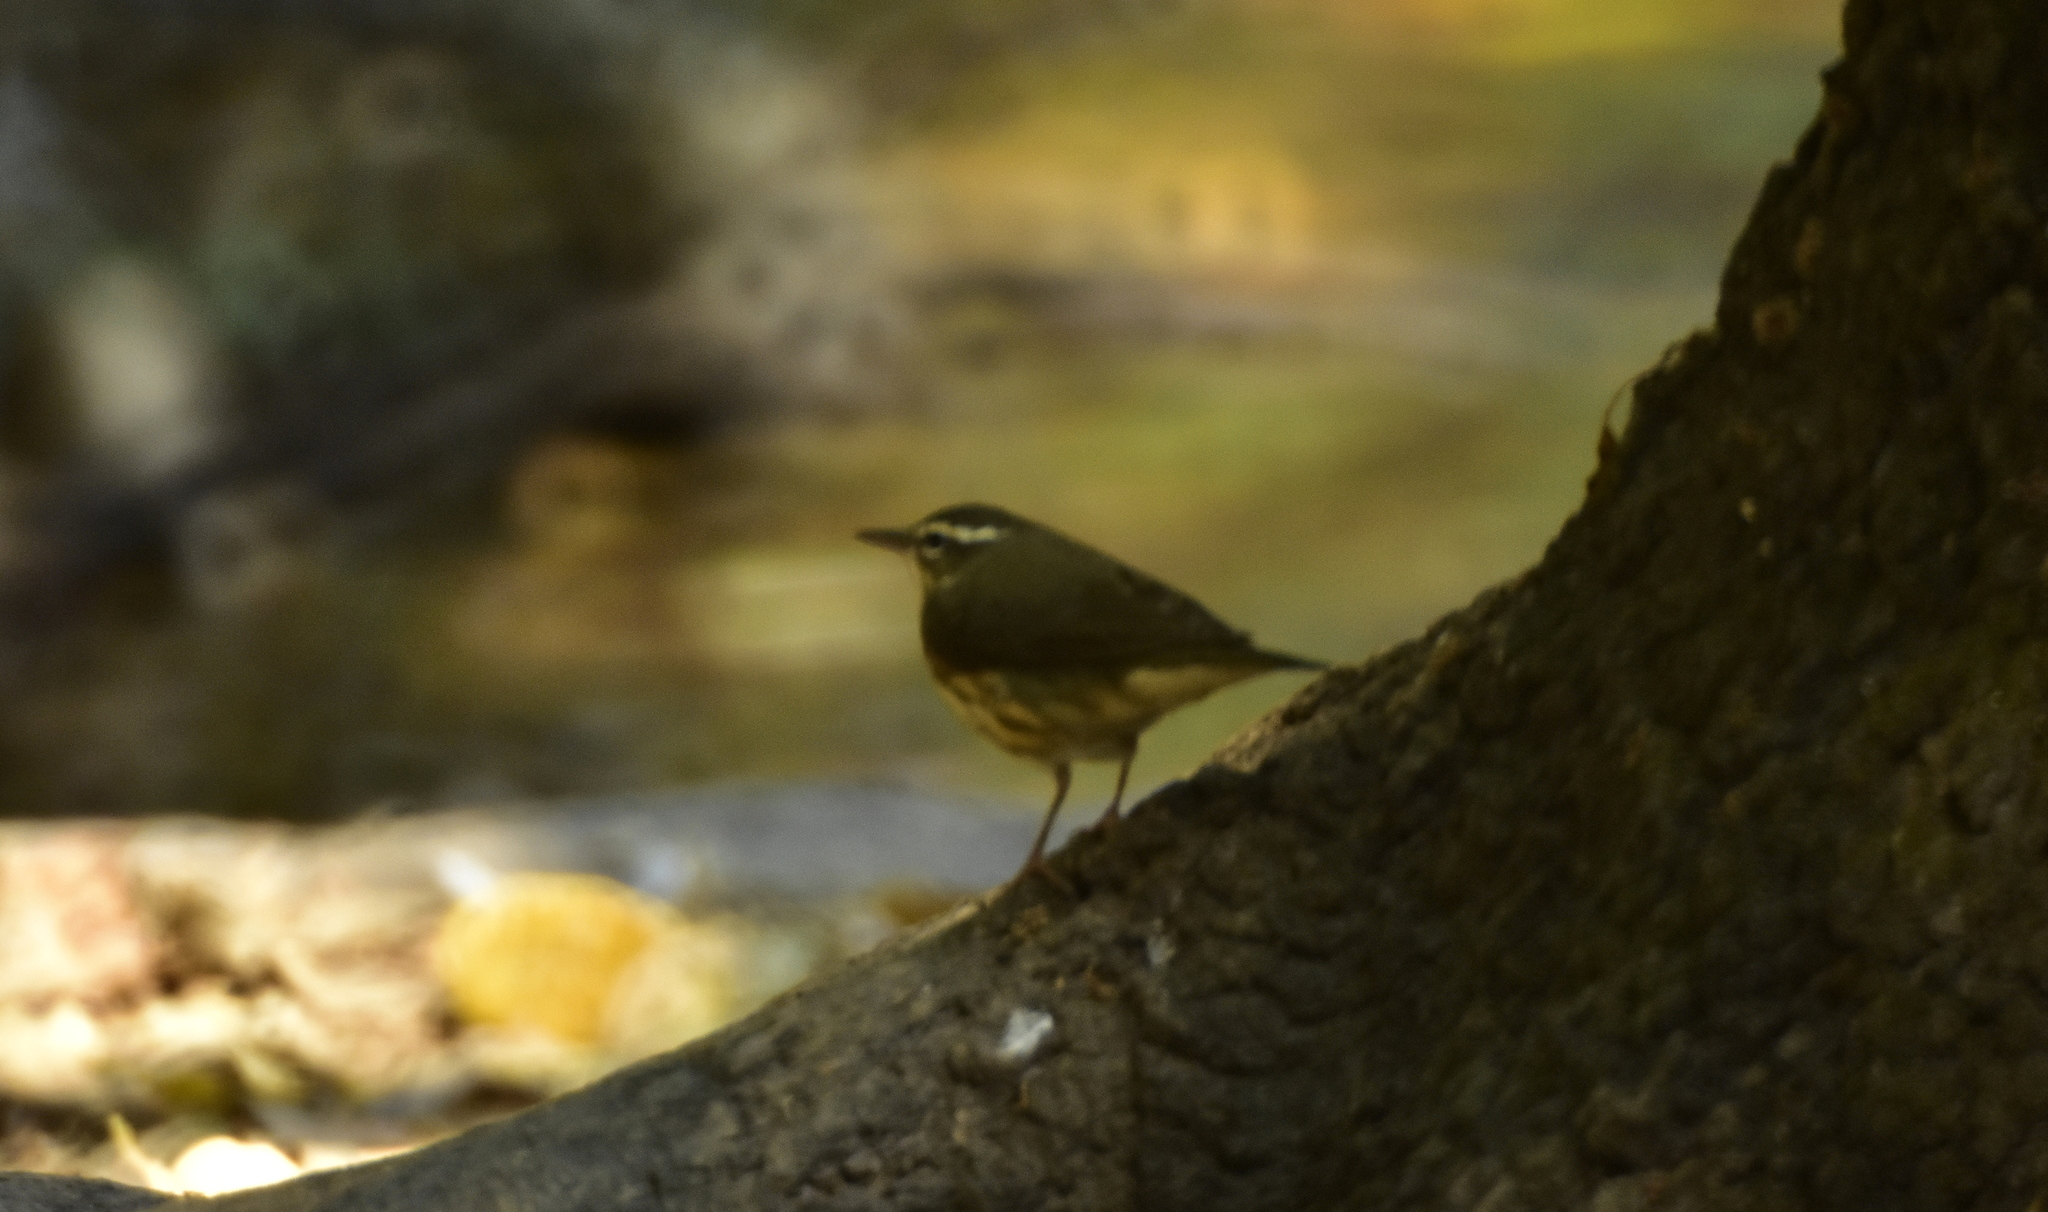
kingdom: Animalia
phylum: Chordata
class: Aves
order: Passeriformes
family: Parulidae
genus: Parkesia
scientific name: Parkesia noveboracensis
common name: Northern waterthrush
